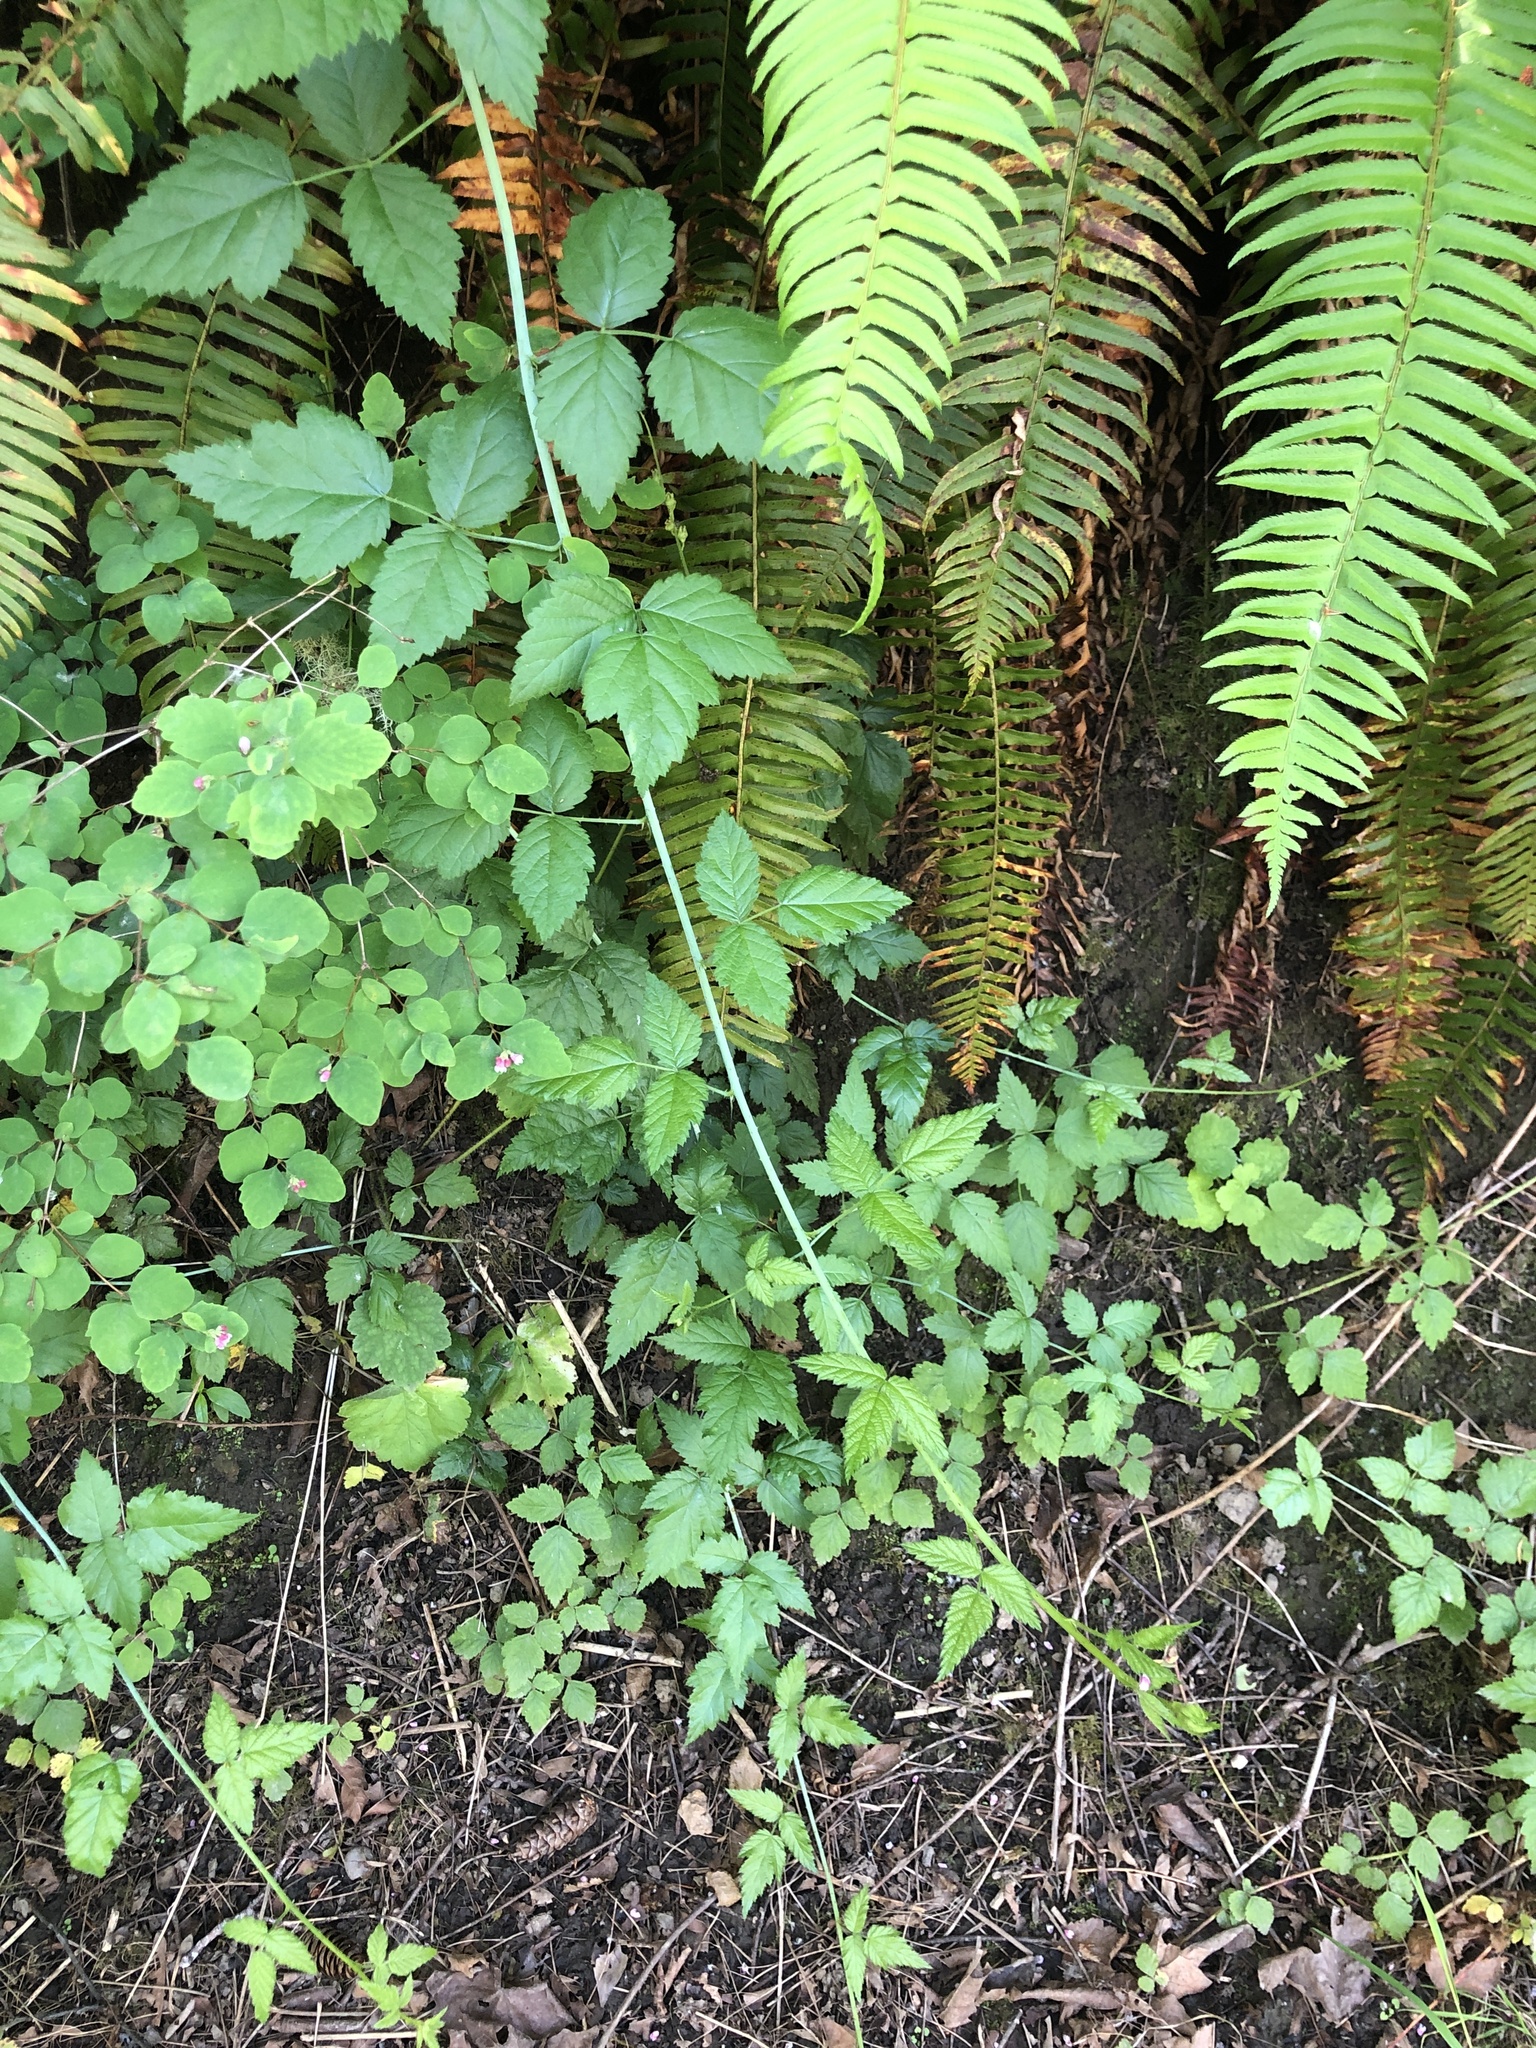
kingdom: Plantae
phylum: Tracheophyta
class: Magnoliopsida
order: Rosales
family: Rosaceae
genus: Rubus
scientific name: Rubus ursinus
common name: Pacific blackberry
